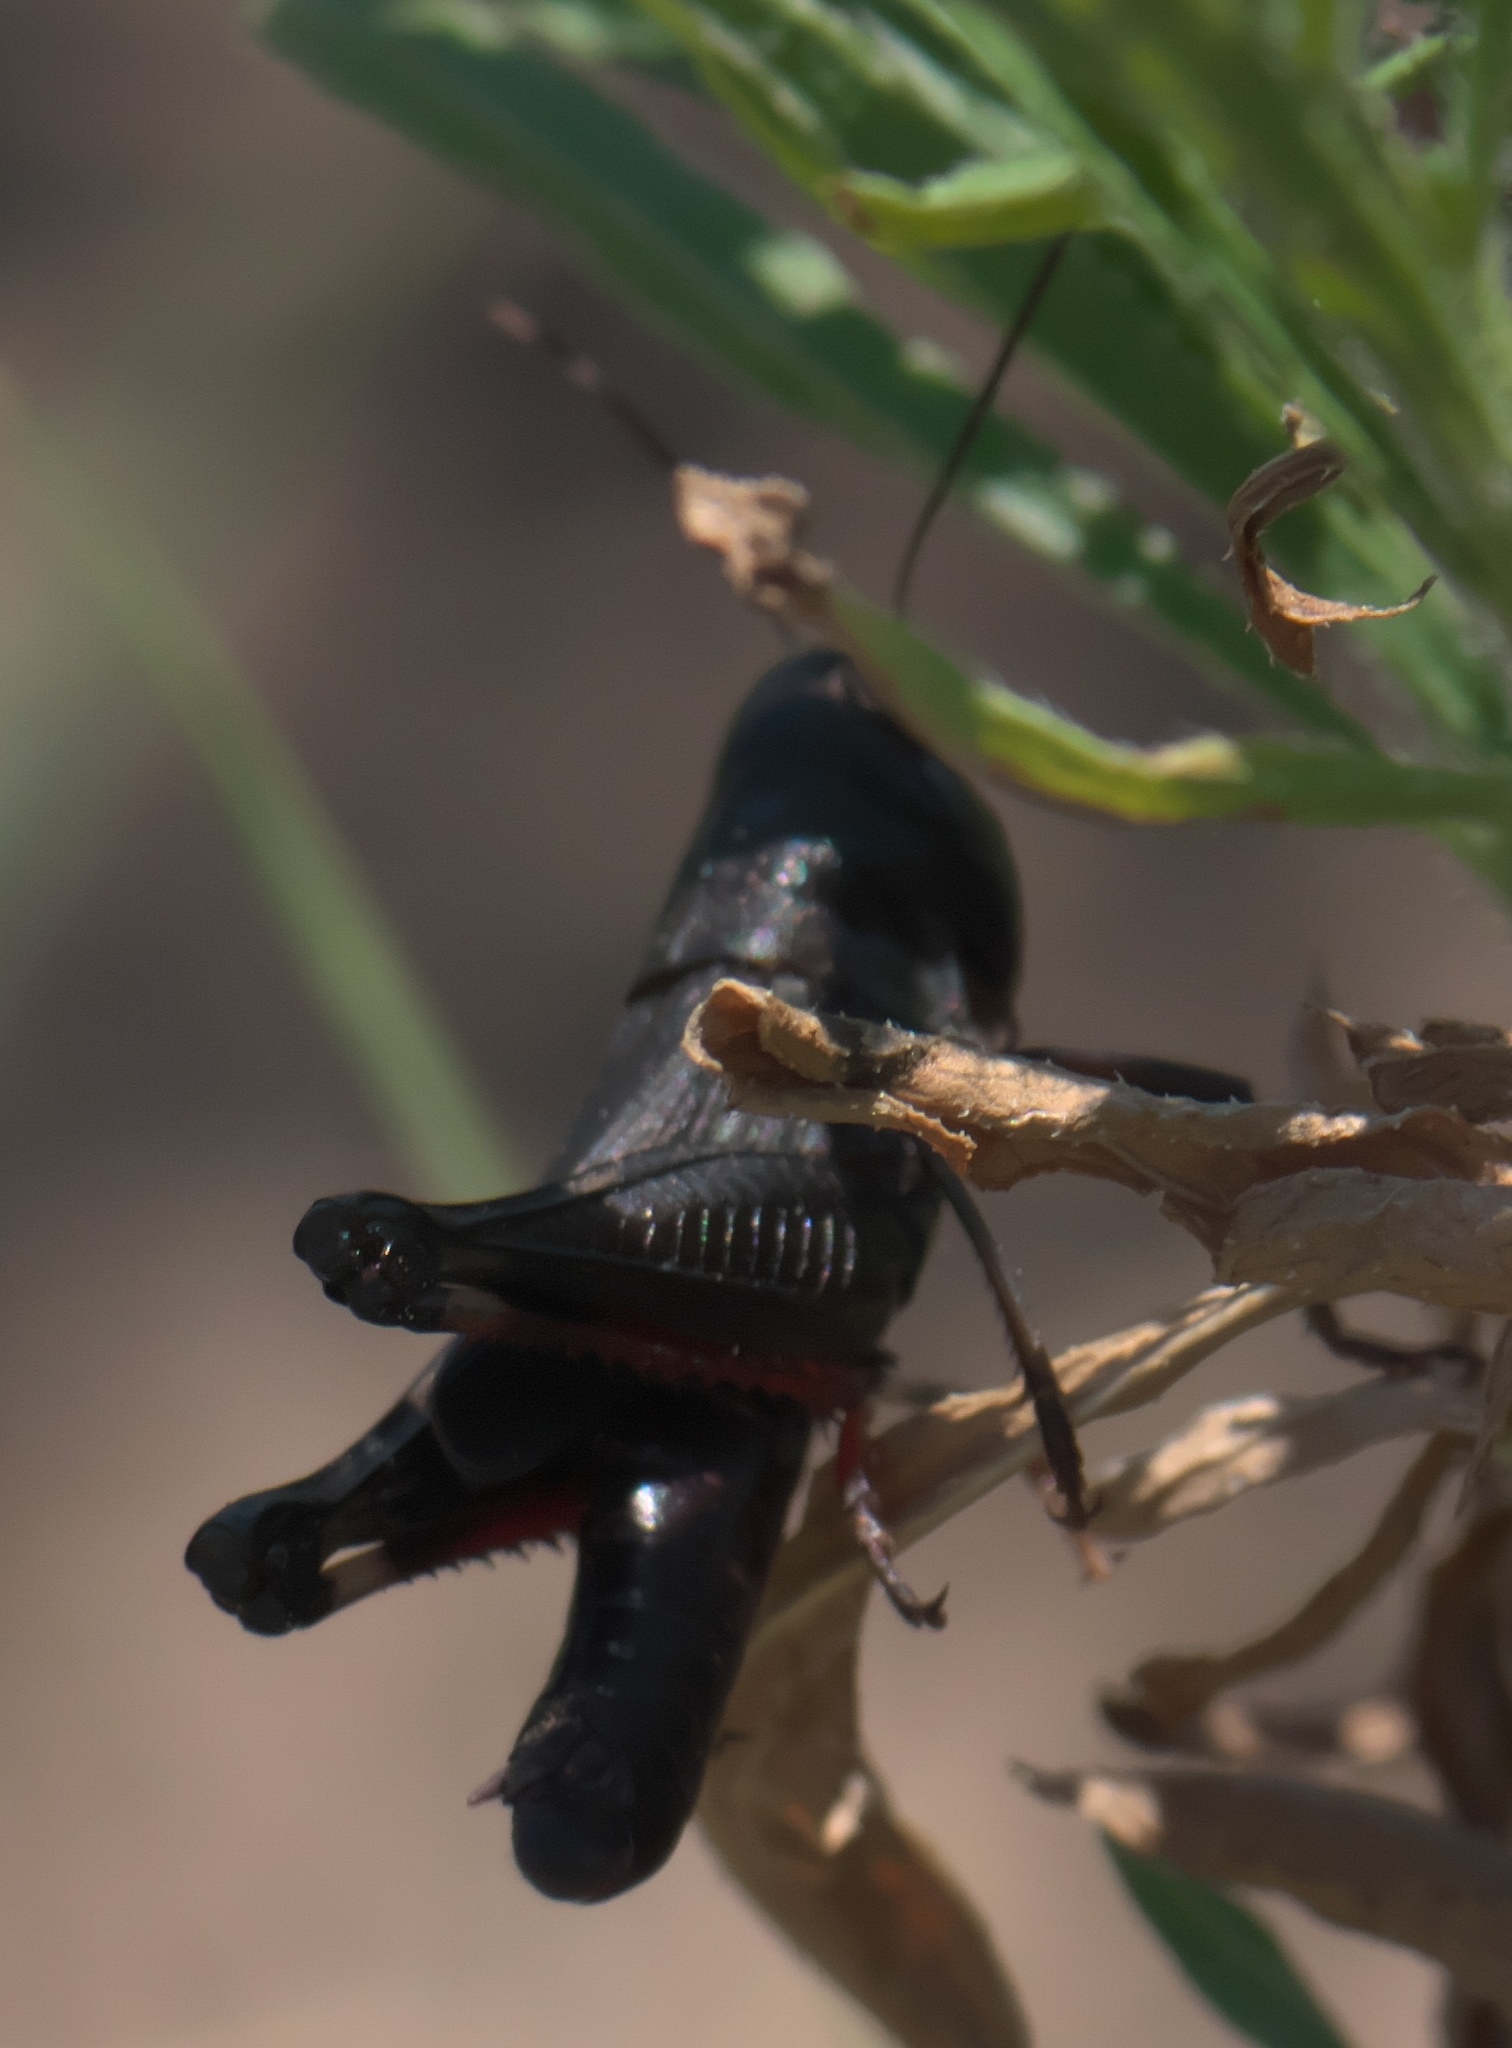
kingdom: Animalia
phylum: Arthropoda
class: Insecta
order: Orthoptera
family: Acrididae
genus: Boopedon
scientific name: Boopedon nubilum
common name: Ebony grasshopper
